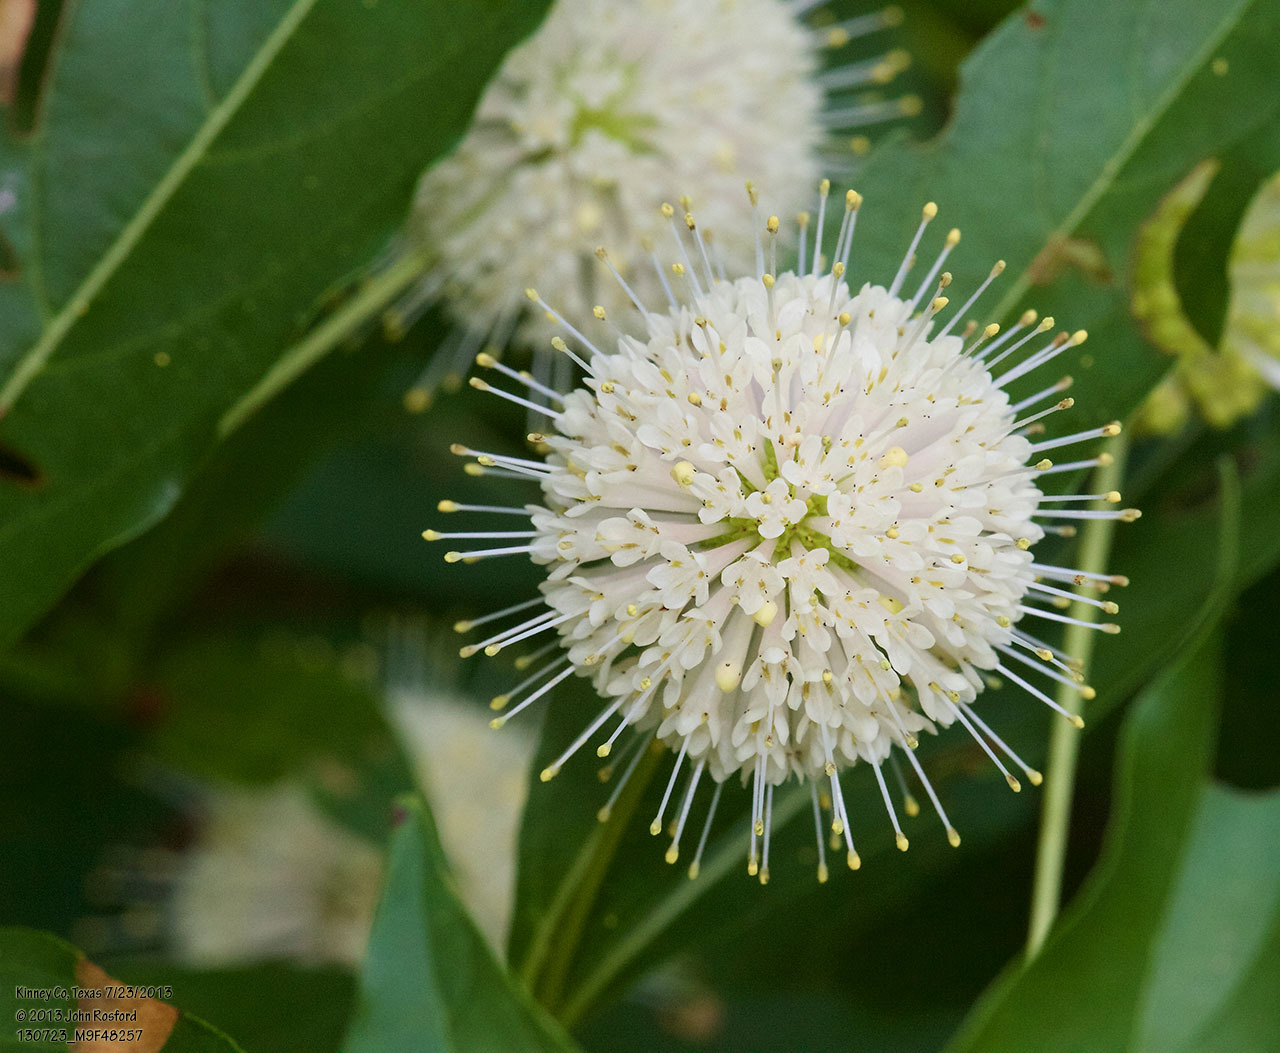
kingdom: Plantae
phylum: Tracheophyta
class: Magnoliopsida
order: Gentianales
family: Rubiaceae
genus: Cephalanthus
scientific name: Cephalanthus occidentalis
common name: Button-willow
